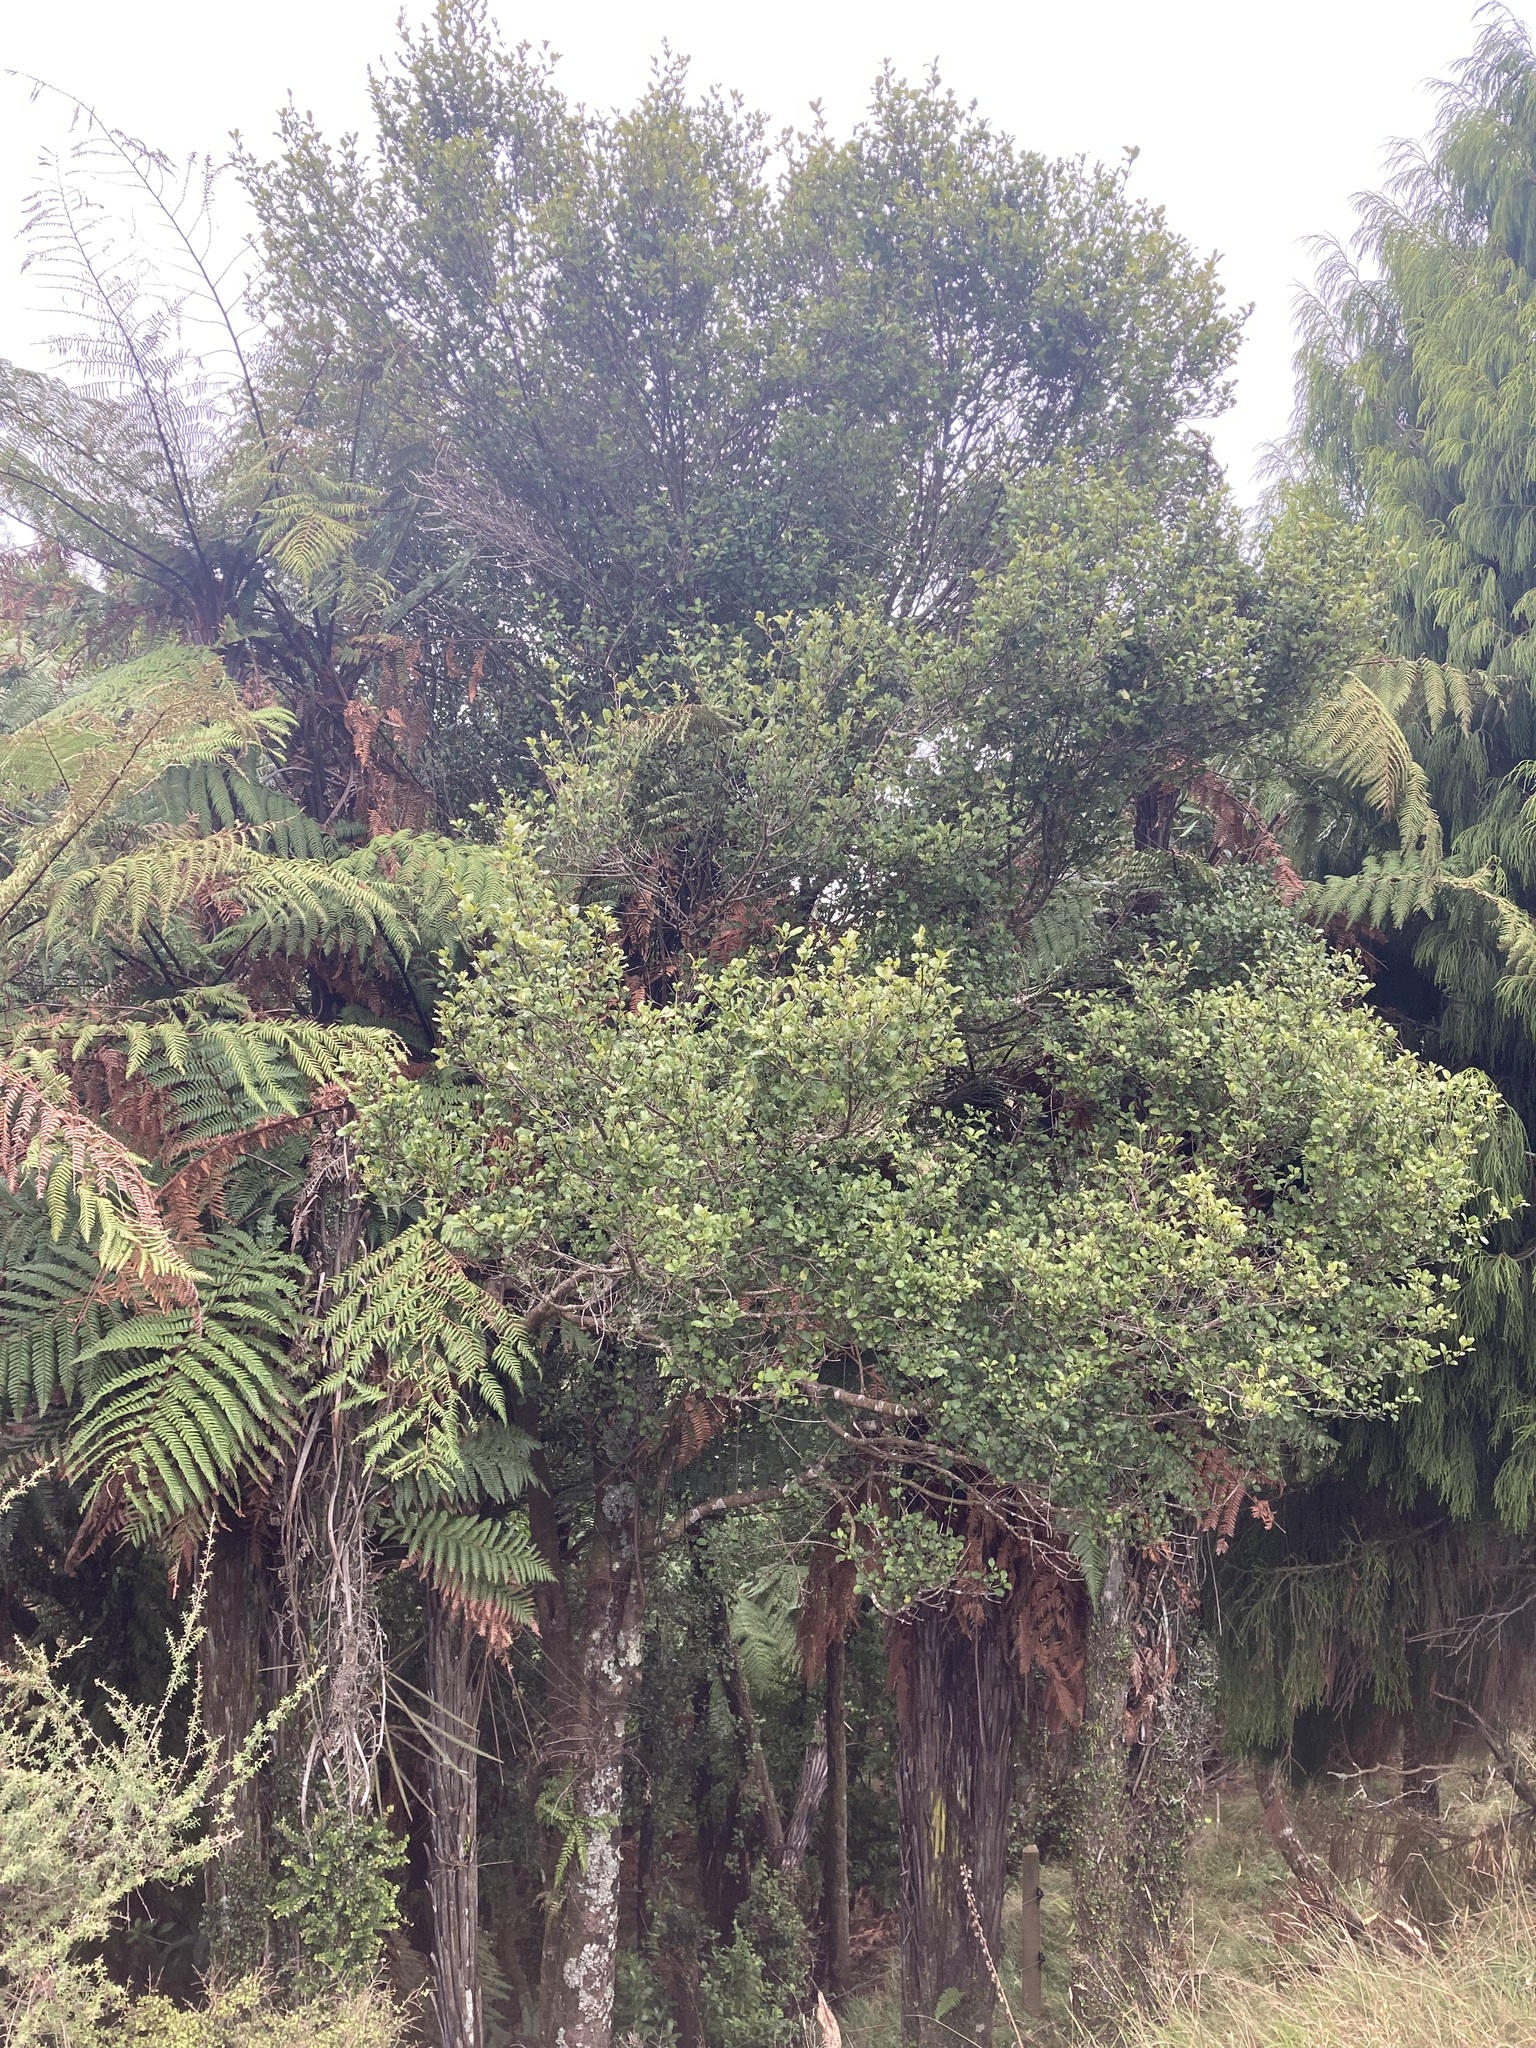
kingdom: Plantae
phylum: Tracheophyta
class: Magnoliopsida
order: Gentianales
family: Rubiaceae
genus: Coprosma
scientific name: Coprosma arborea
